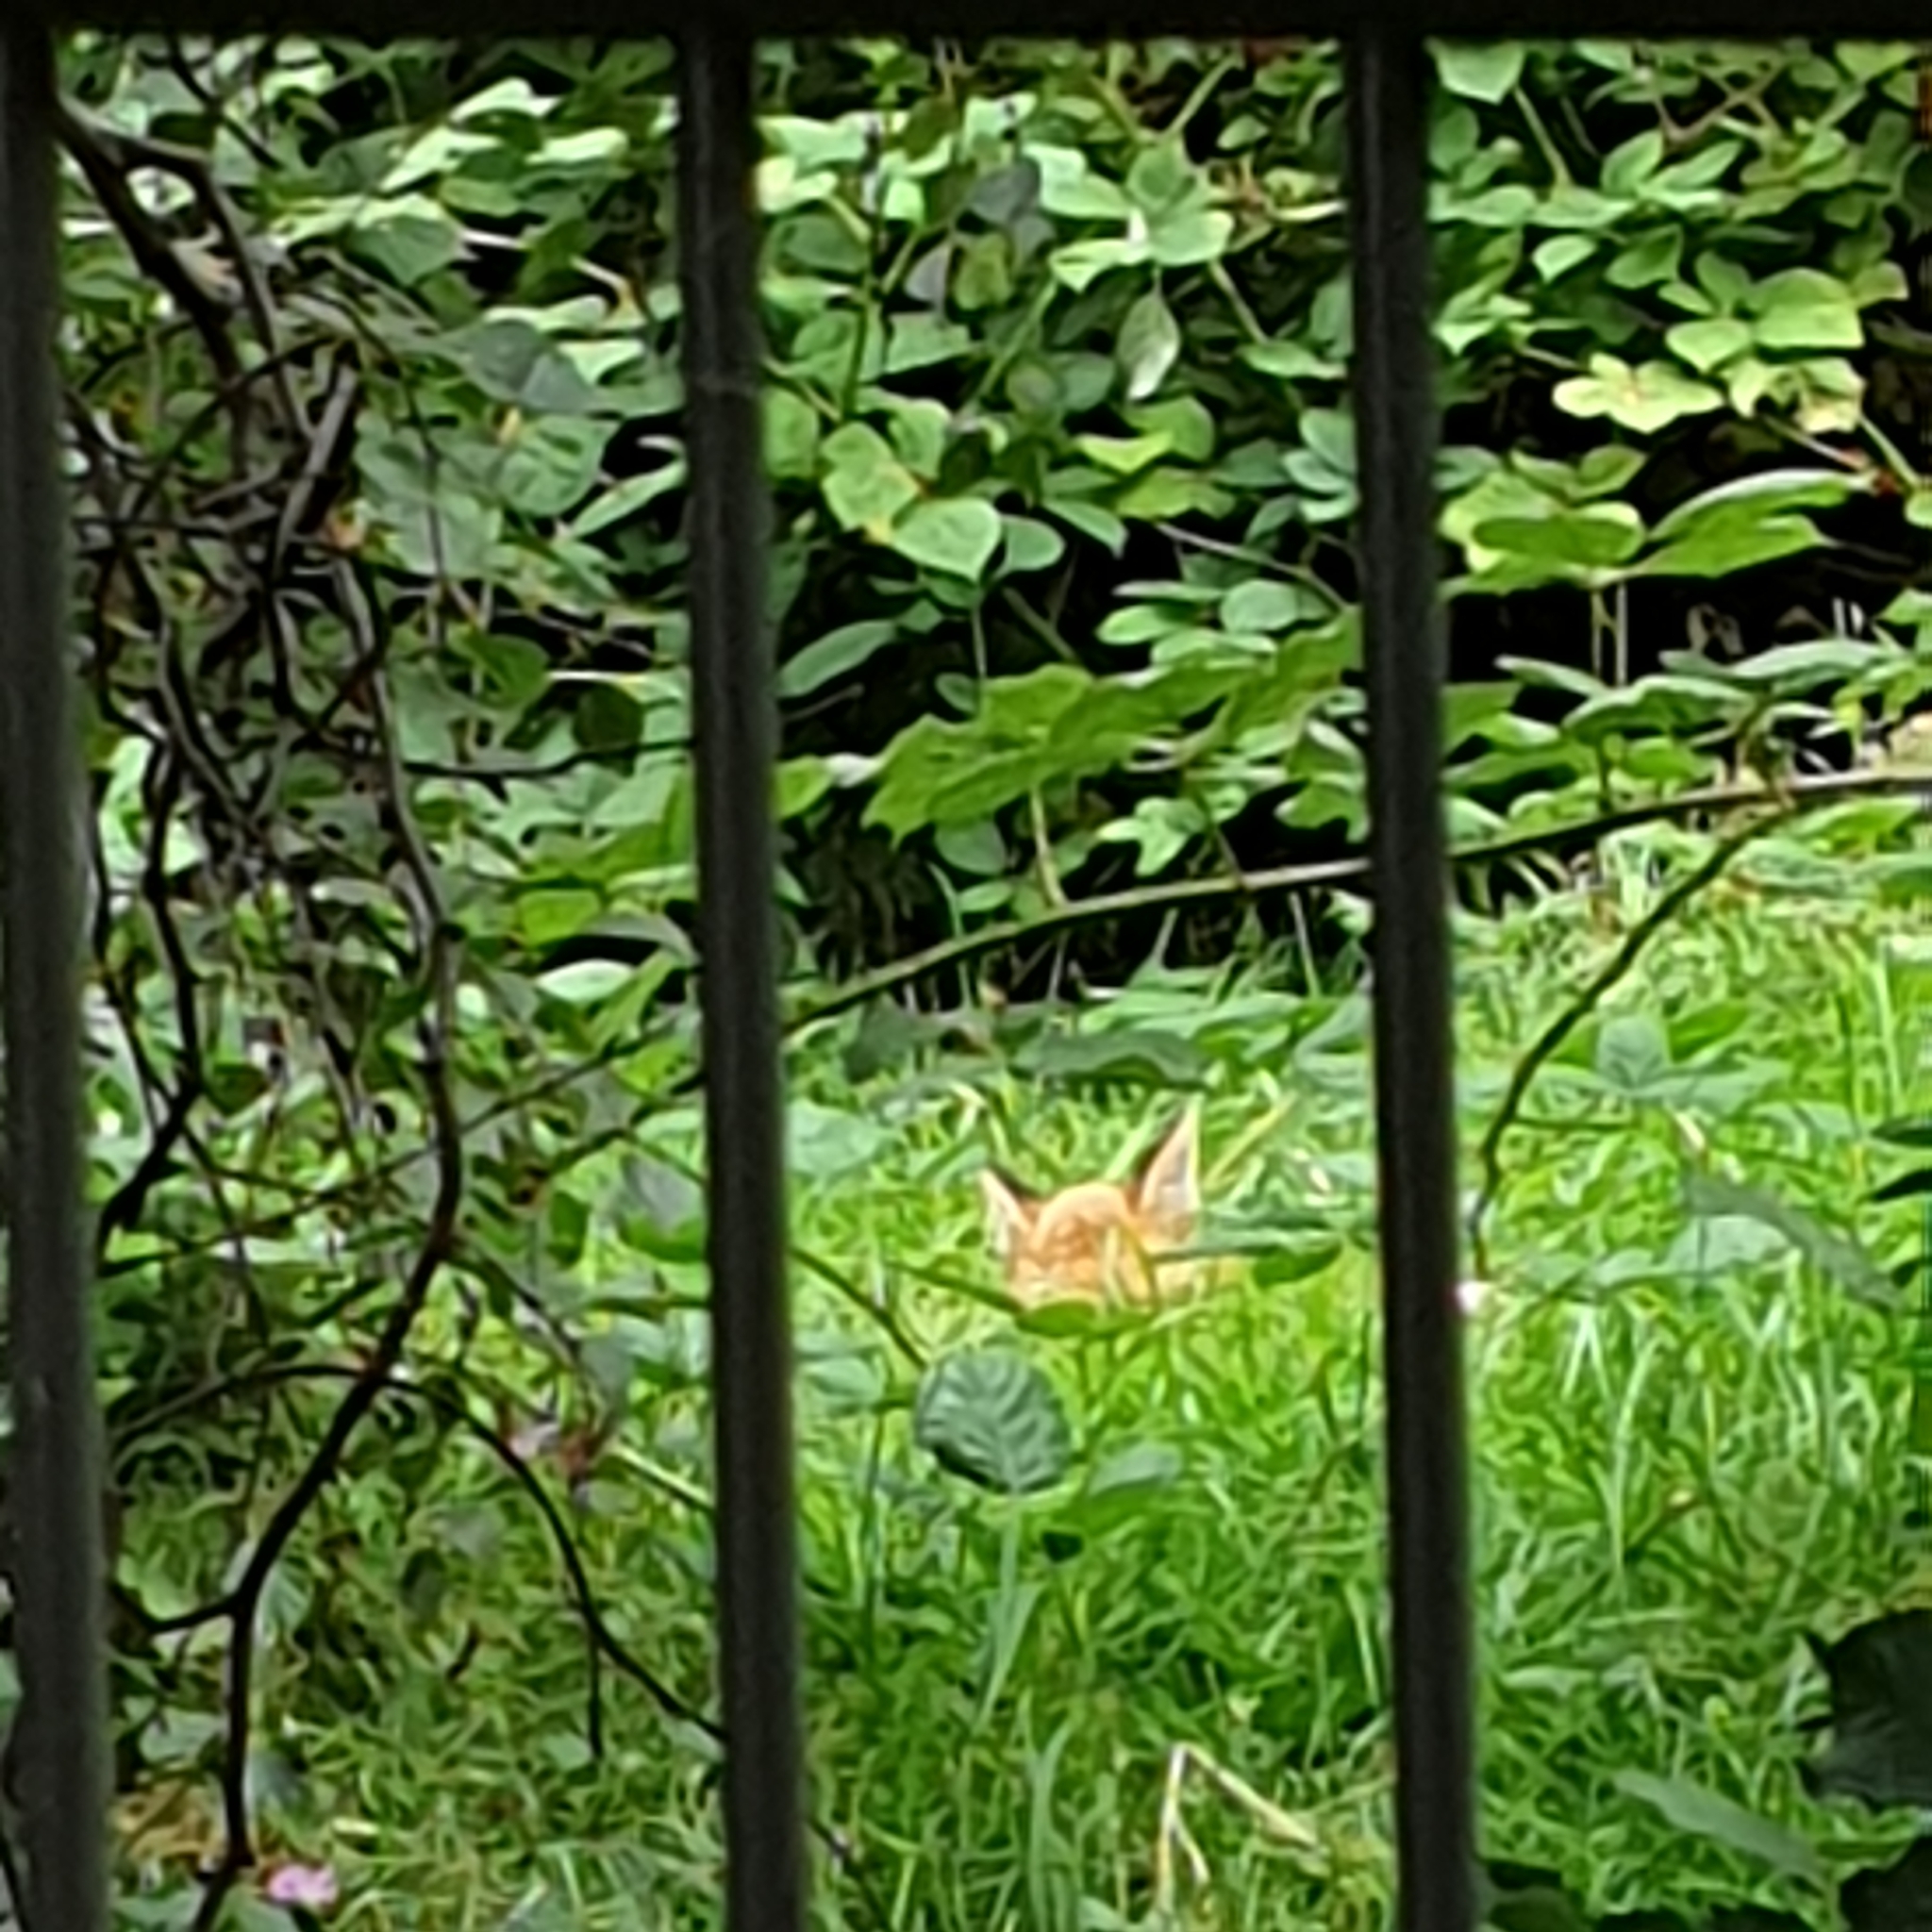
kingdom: Animalia
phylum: Chordata
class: Mammalia
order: Carnivora
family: Canidae
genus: Vulpes
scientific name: Vulpes vulpes
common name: Red fox
